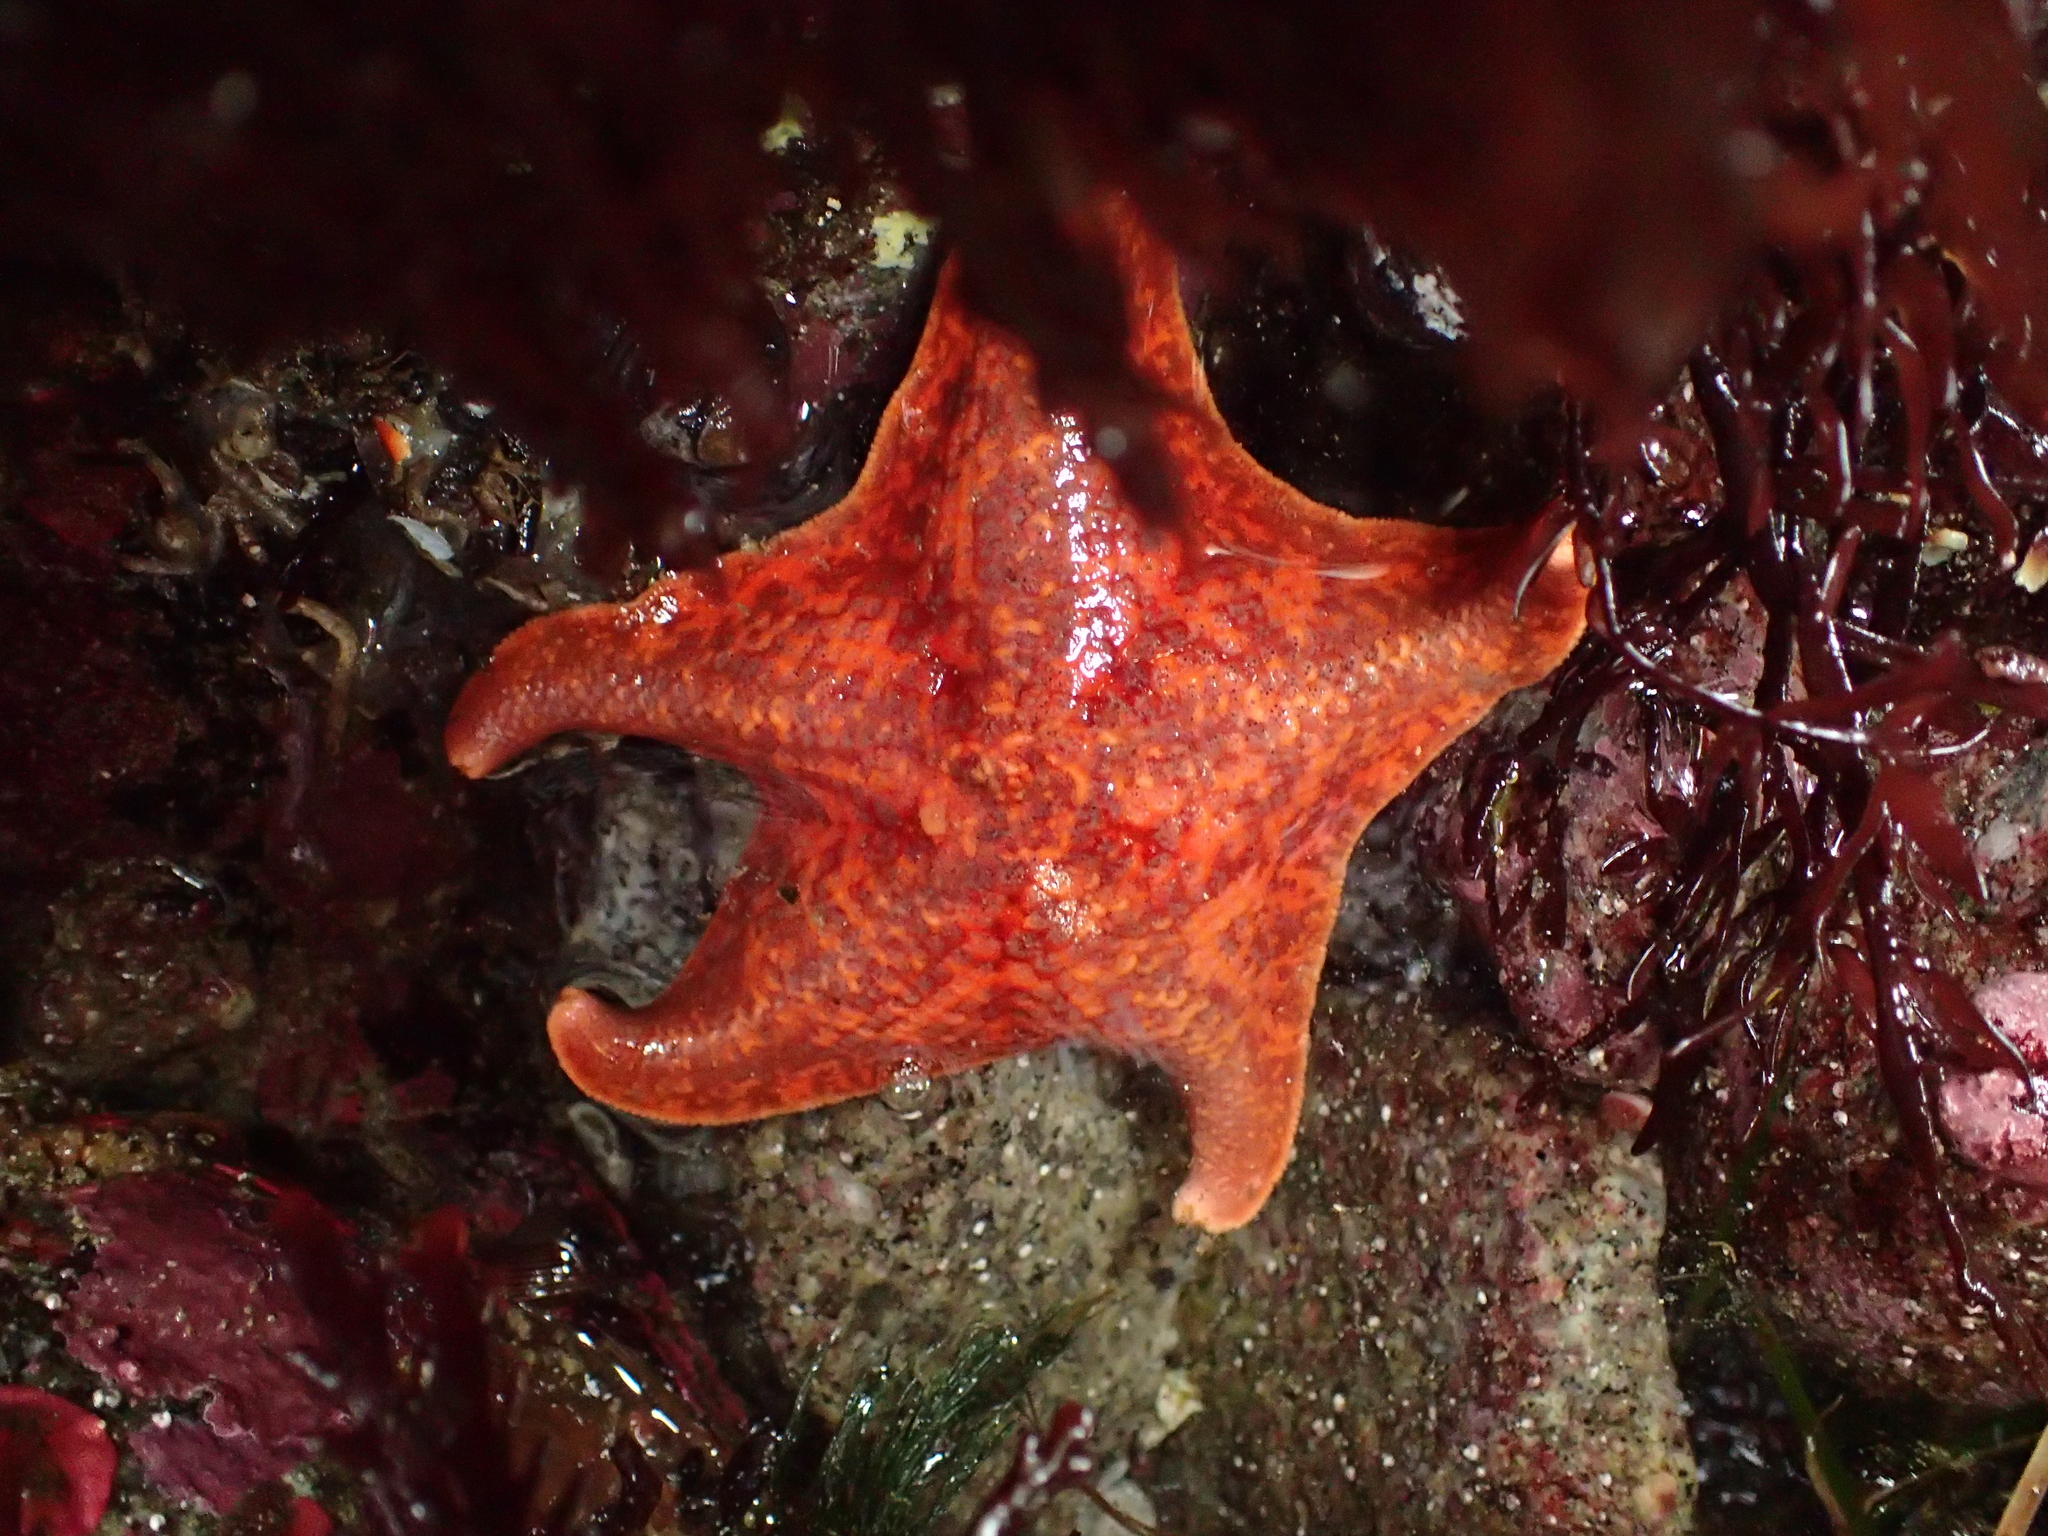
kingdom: Animalia
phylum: Echinodermata
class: Asteroidea
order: Valvatida
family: Asterinidae
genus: Patiria
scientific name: Patiria miniata
